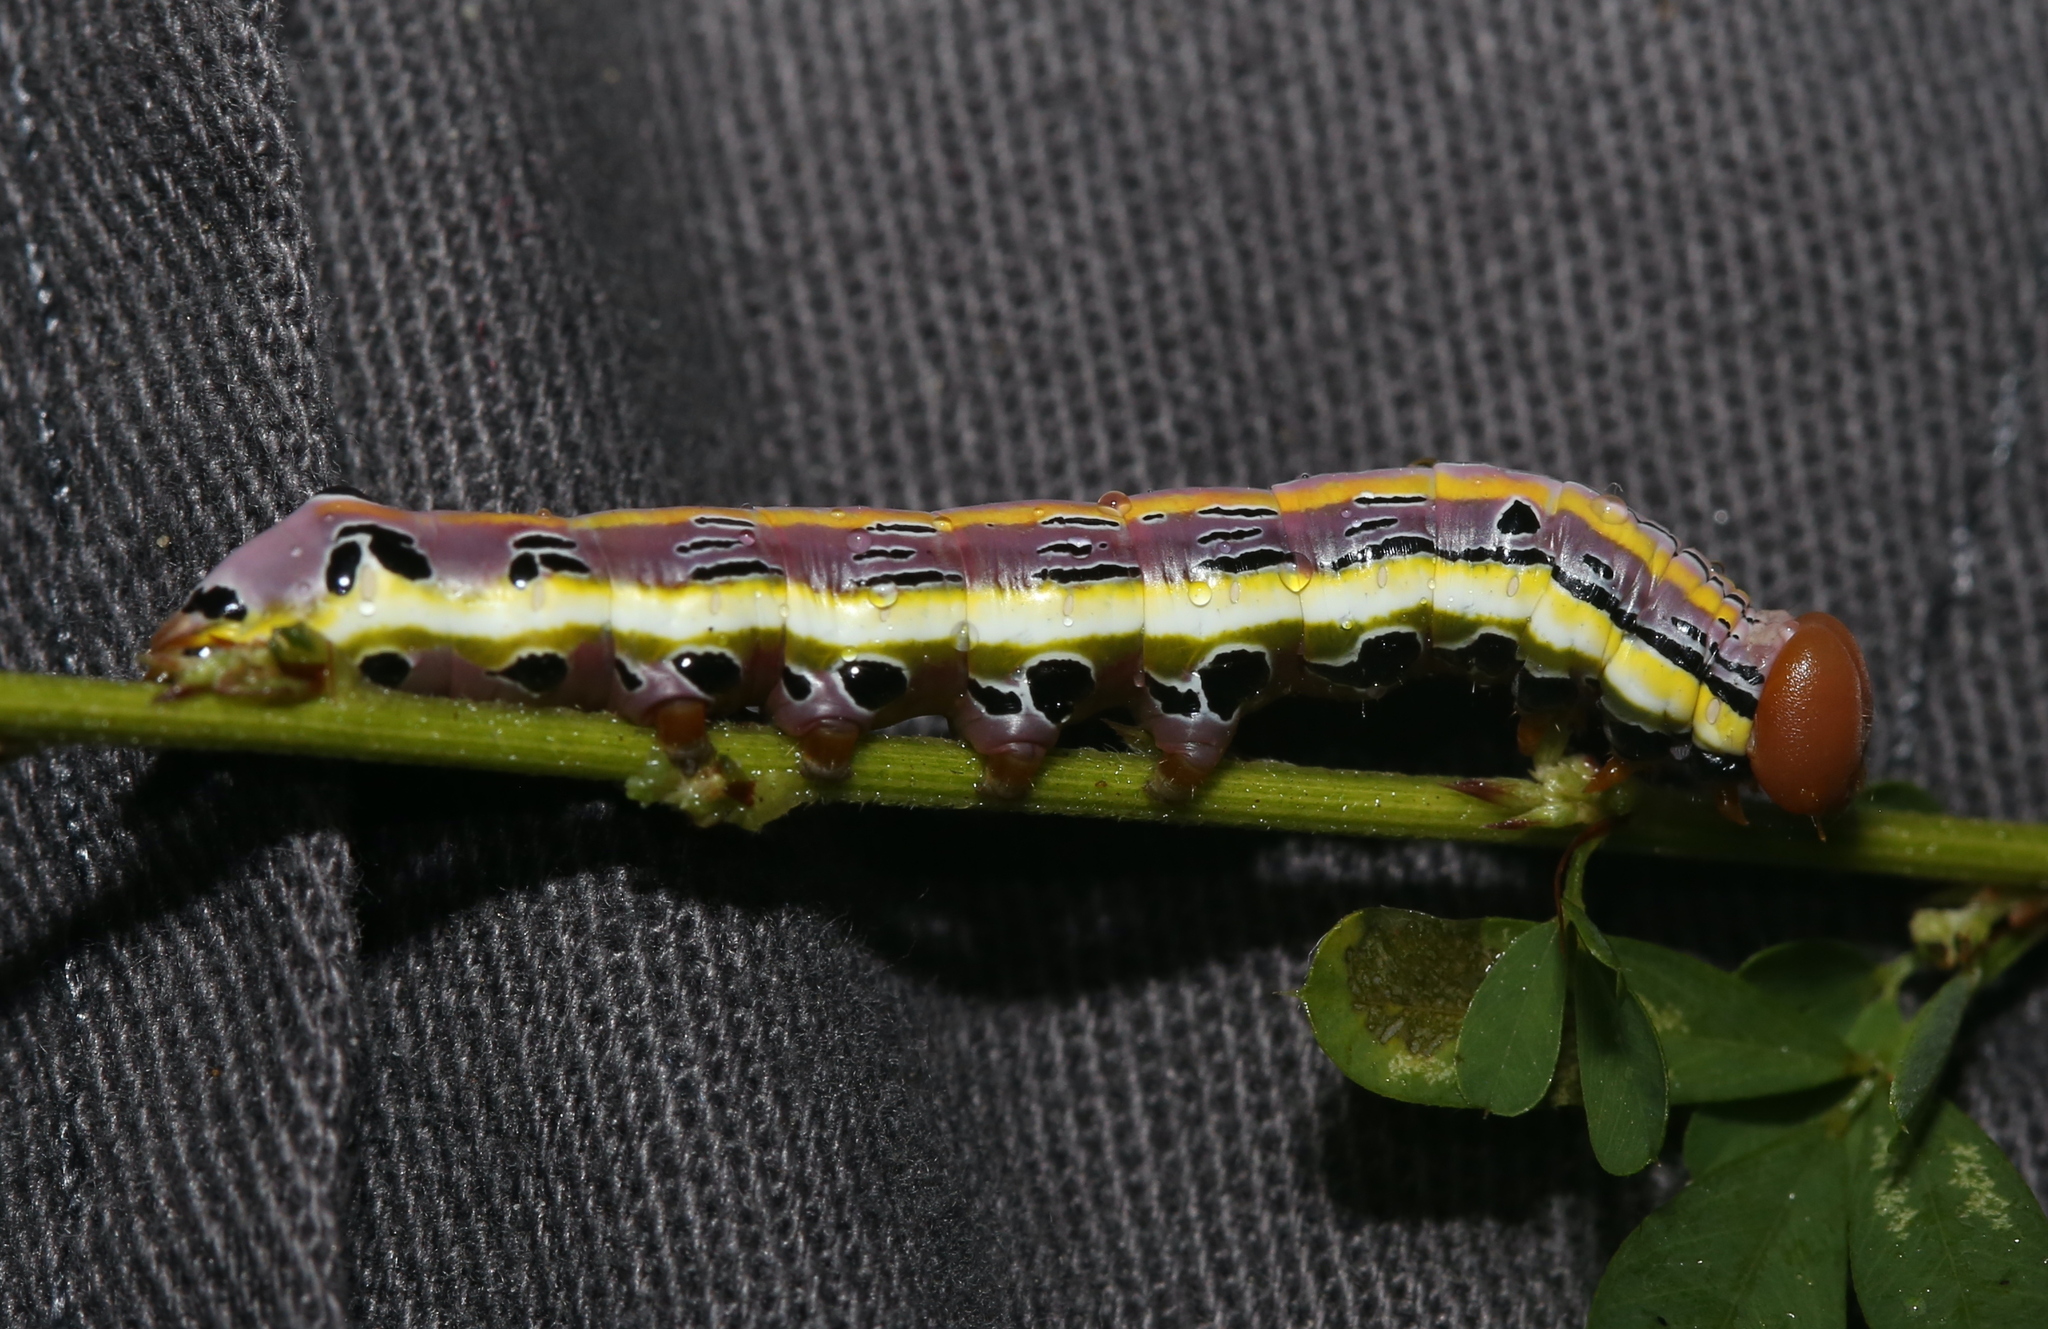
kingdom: Animalia
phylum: Arthropoda
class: Insecta
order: Lepidoptera
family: Notodontidae
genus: Dasylophia
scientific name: Dasylophia anguina
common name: Black-spotted prominent
